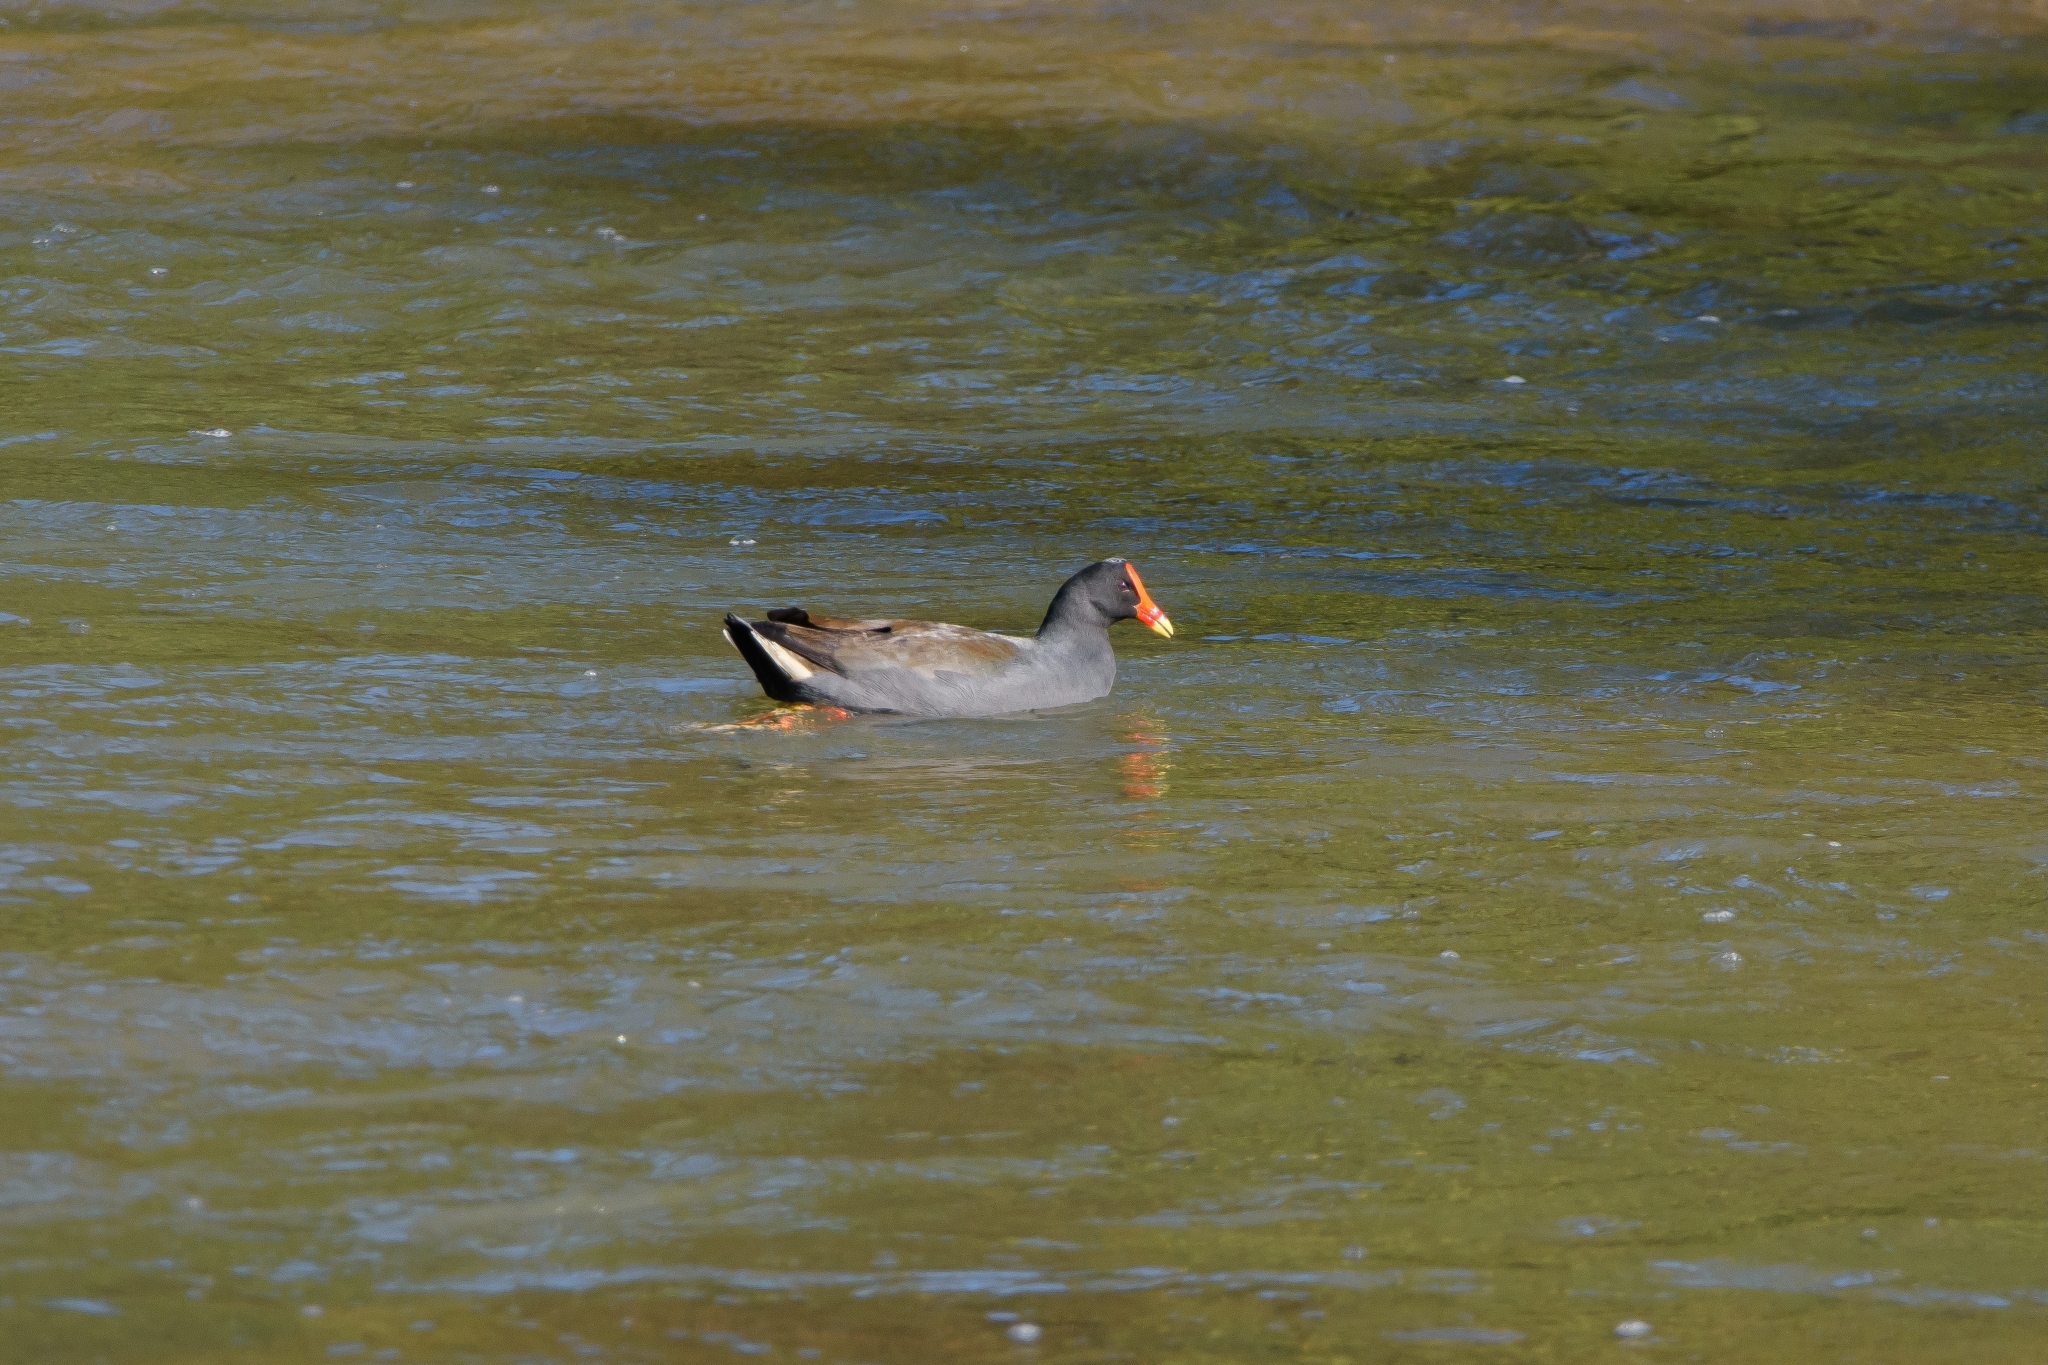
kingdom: Animalia
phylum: Chordata
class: Aves
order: Gruiformes
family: Rallidae
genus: Gallinula
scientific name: Gallinula tenebrosa
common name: Dusky moorhen
